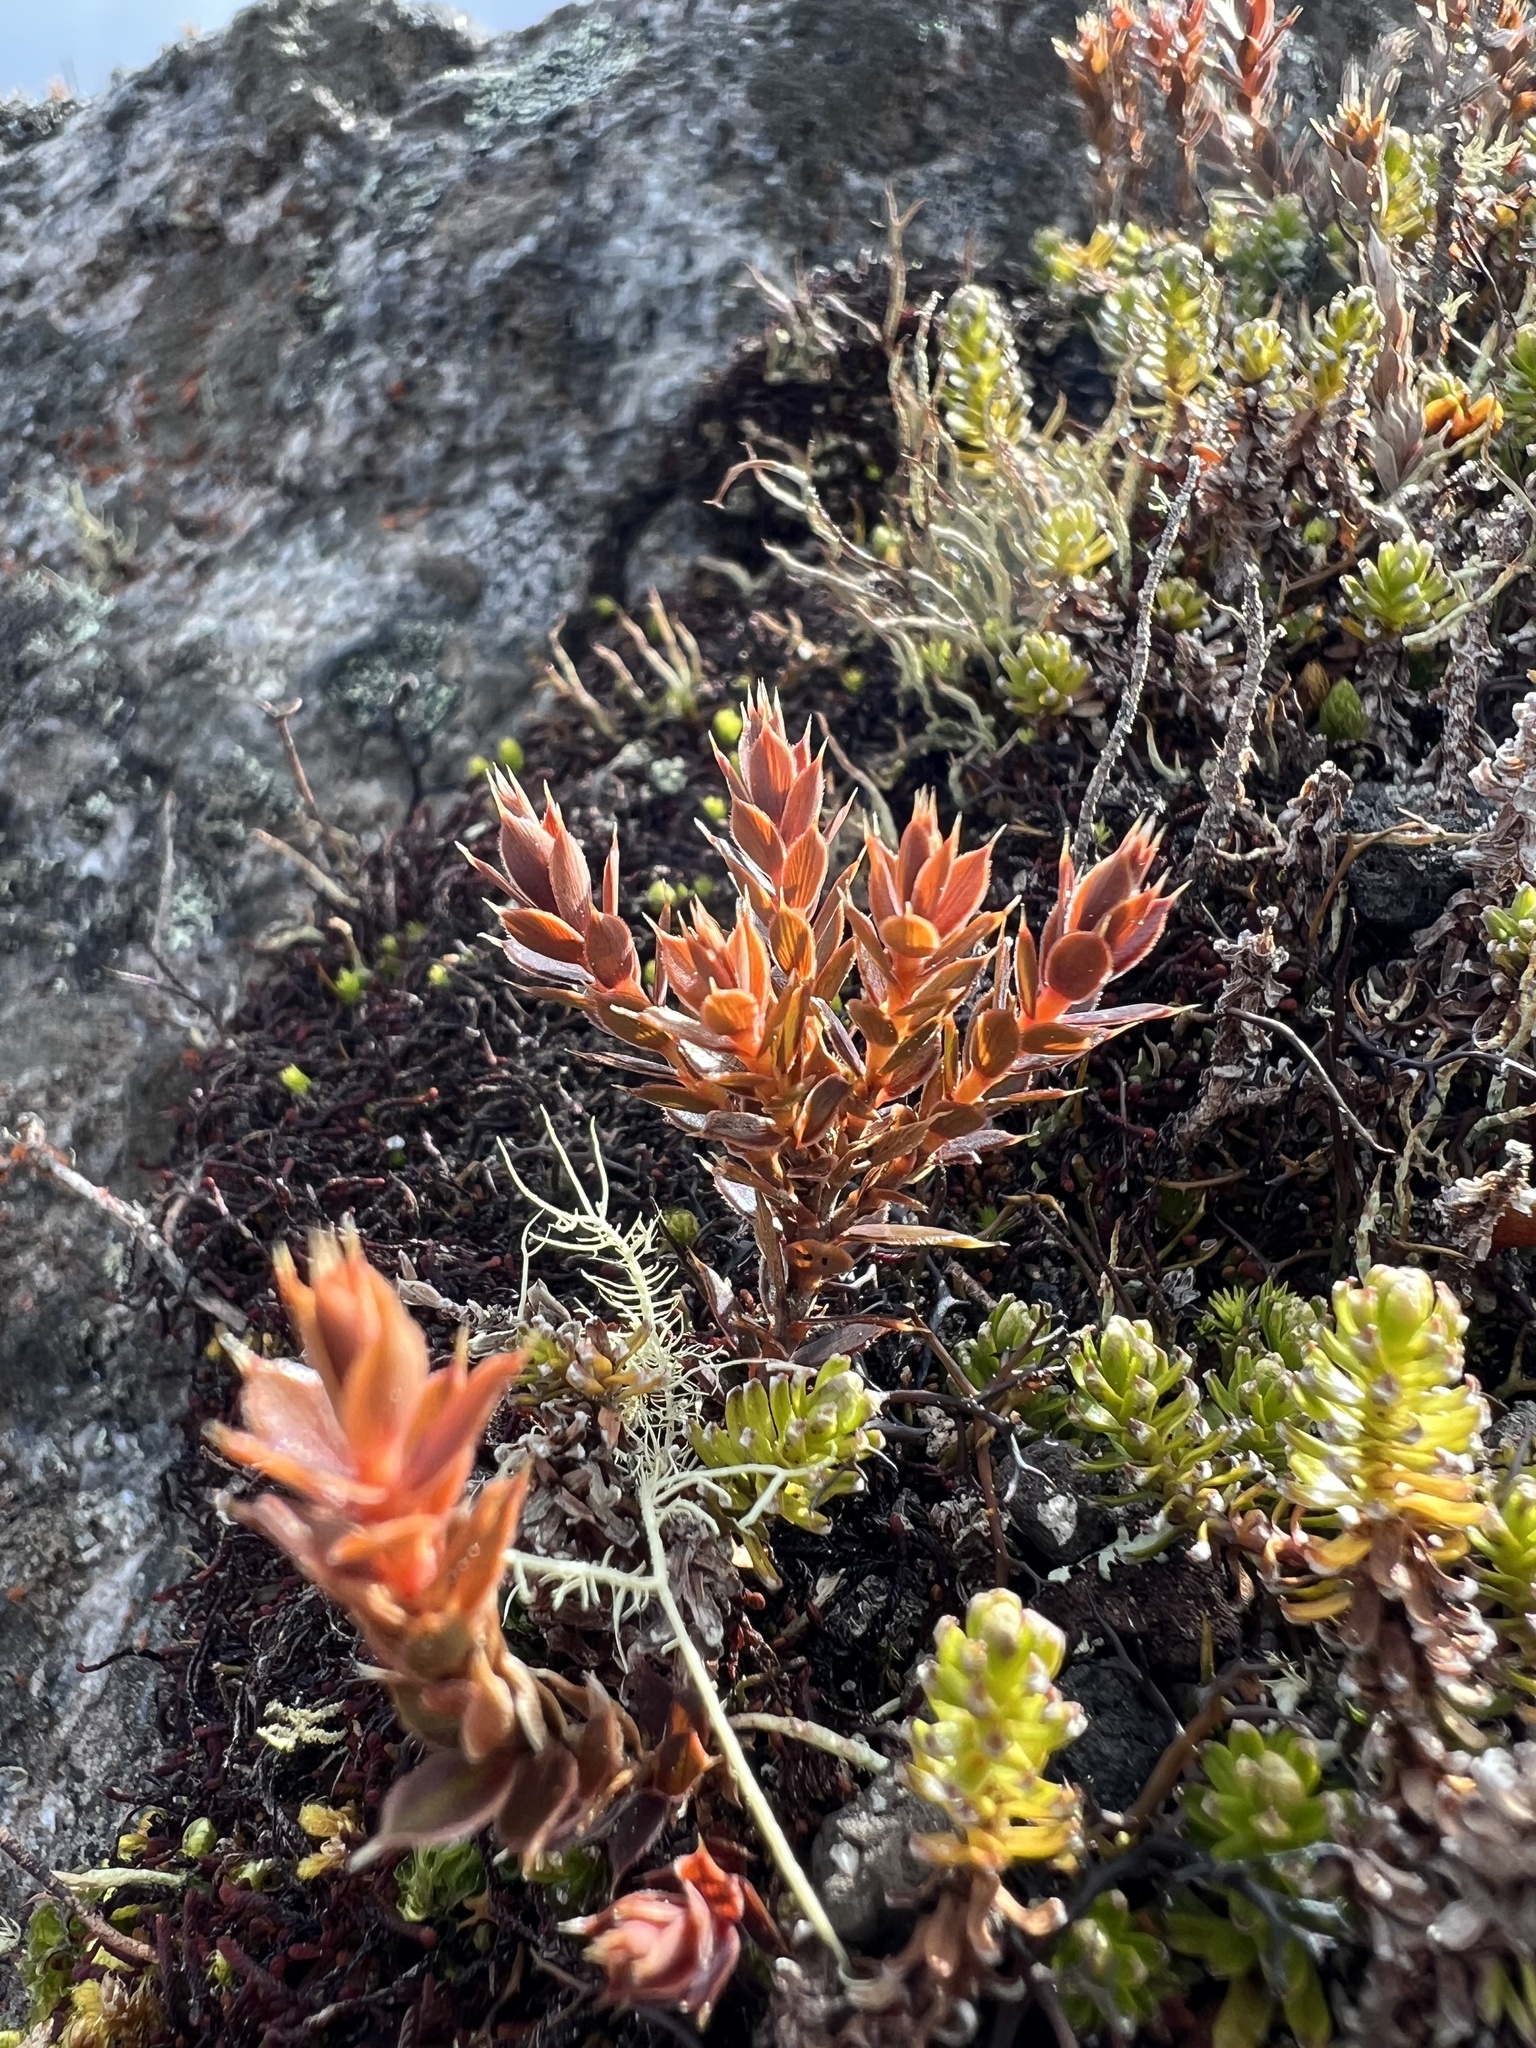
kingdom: Plantae
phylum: Tracheophyta
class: Magnoliopsida
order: Ericales
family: Ericaceae
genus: Styphelia
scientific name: Styphelia nesophila
